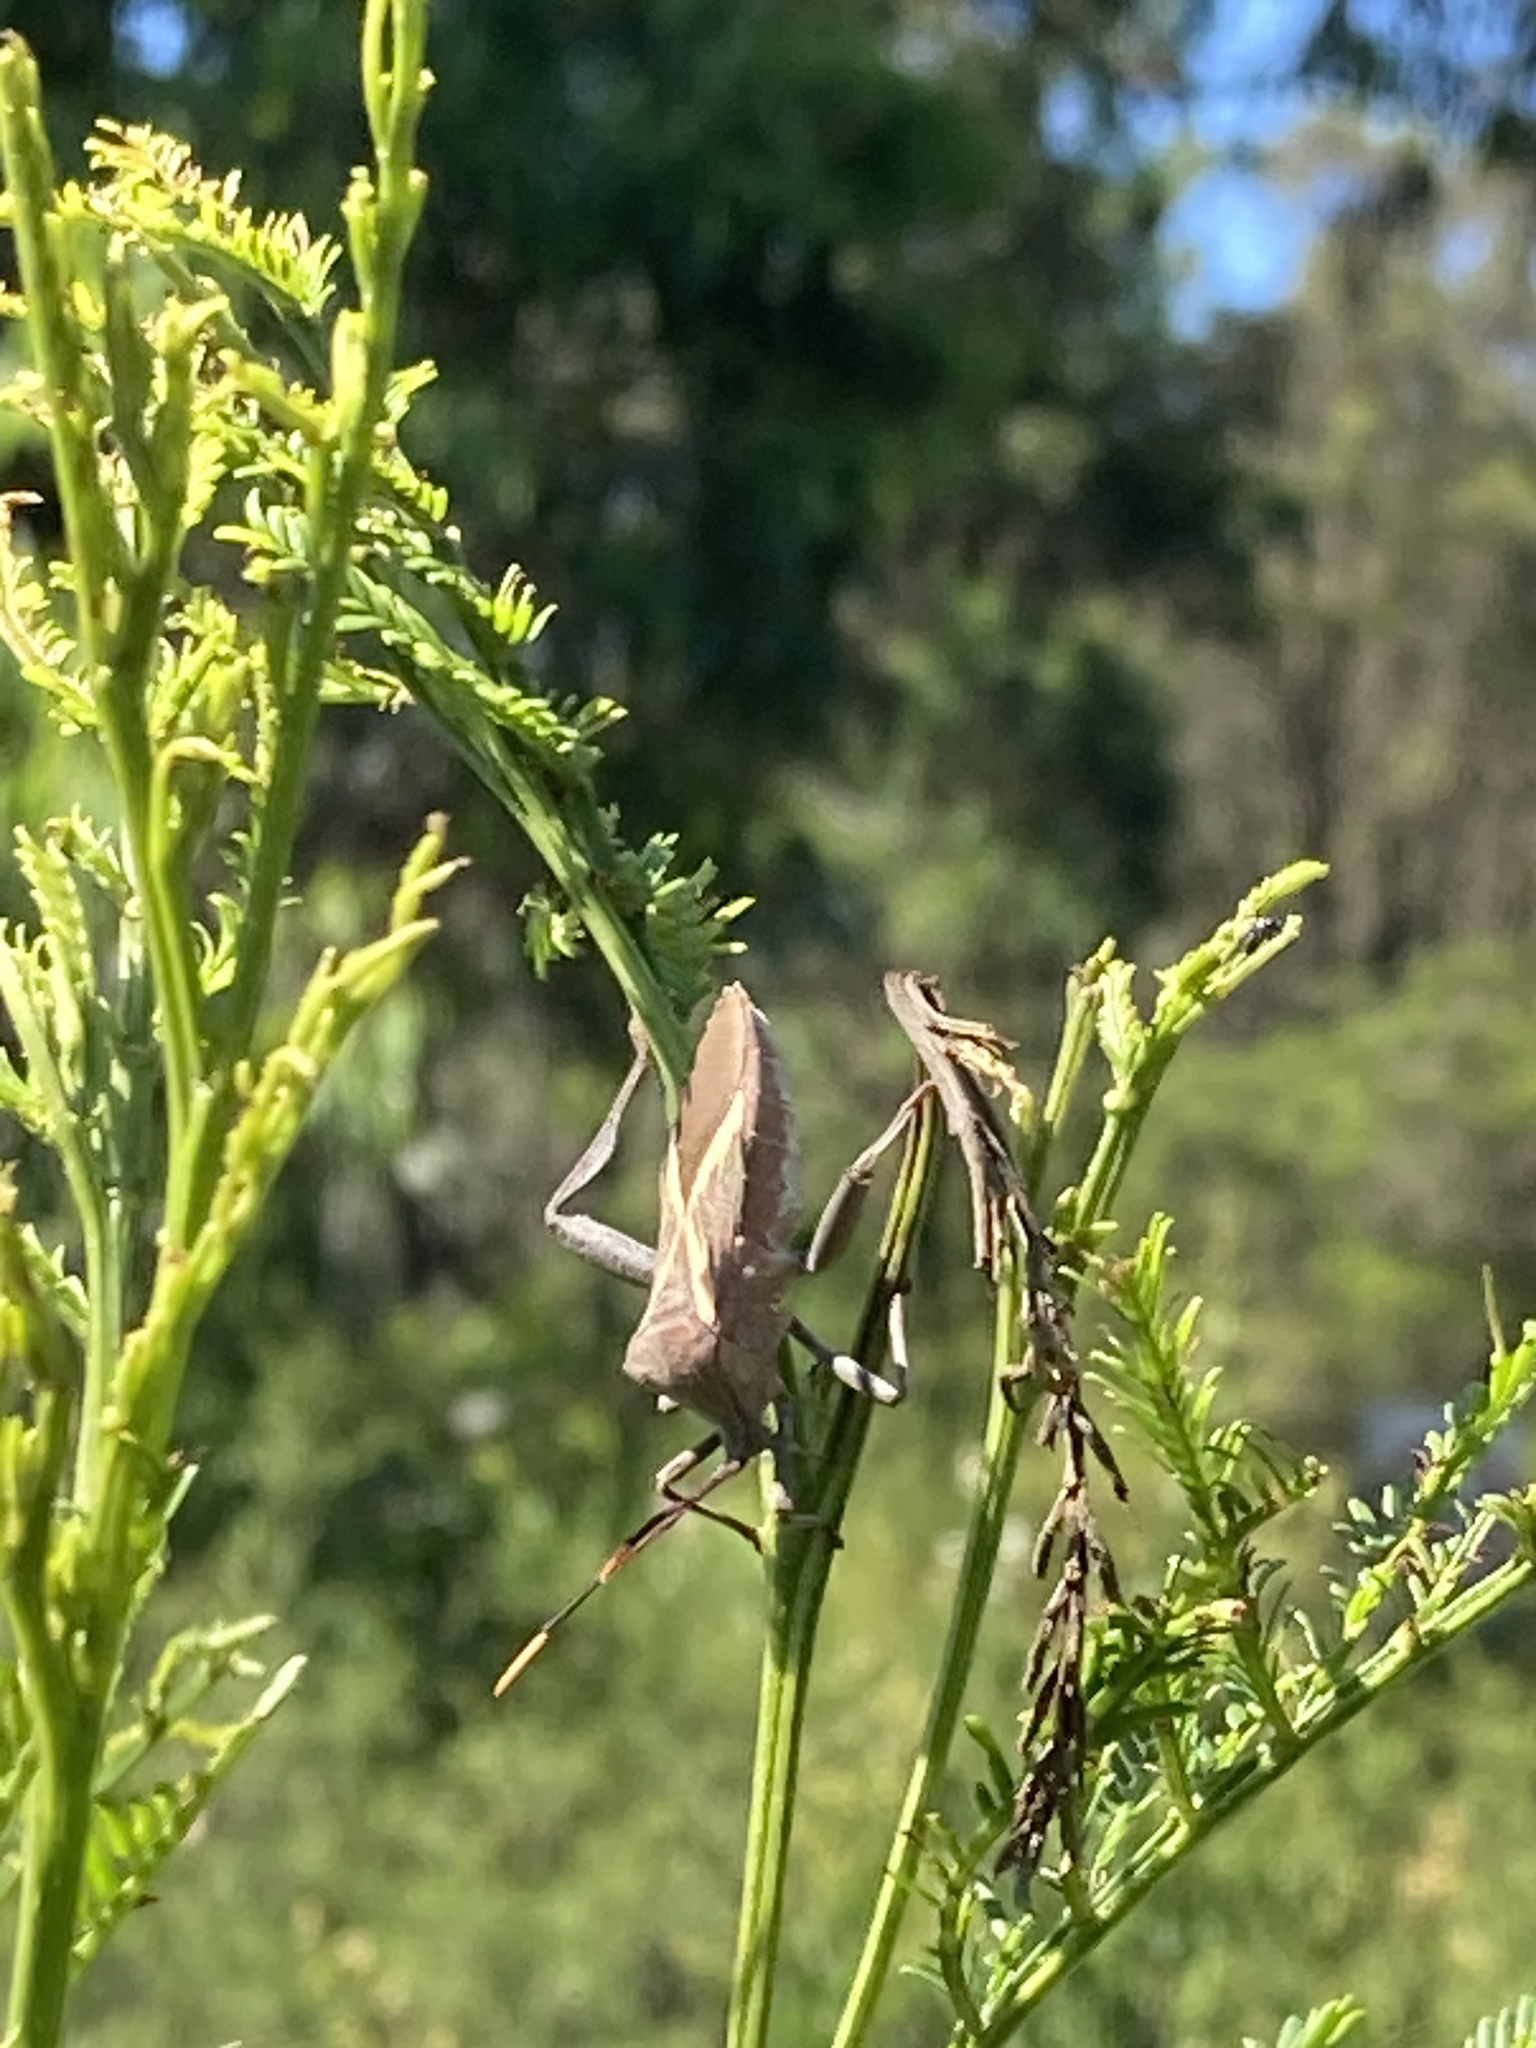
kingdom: Animalia
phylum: Arthropoda
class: Insecta
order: Hemiptera
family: Coreidae
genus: Mictis
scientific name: Mictis profana
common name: Crusader bug
